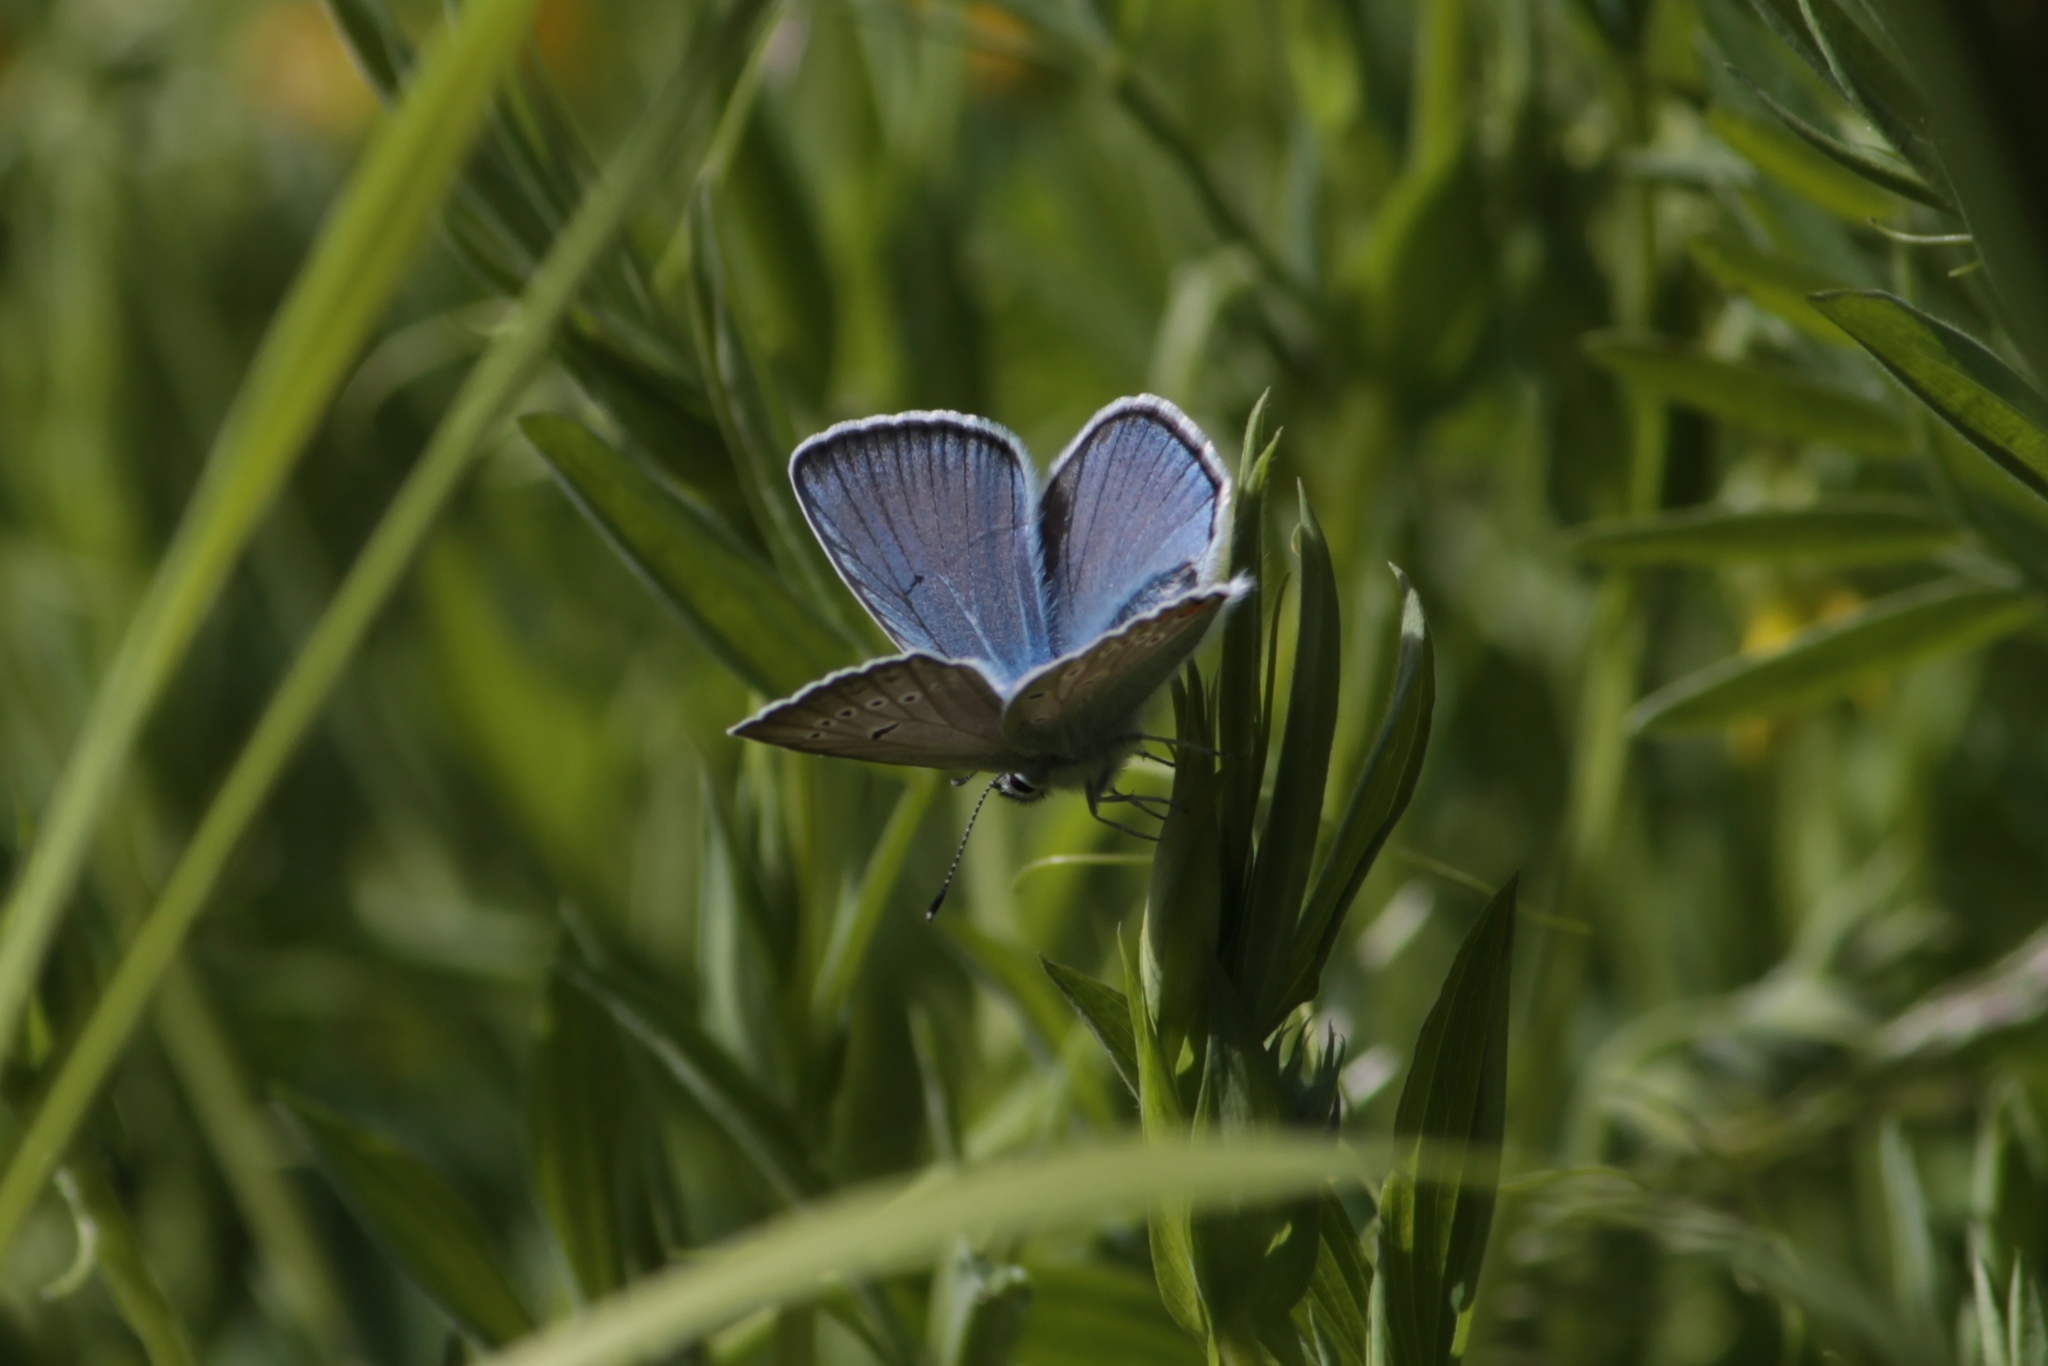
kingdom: Animalia
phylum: Arthropoda
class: Insecta
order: Lepidoptera
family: Lycaenidae
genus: Plebejus
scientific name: Plebejus amanda
